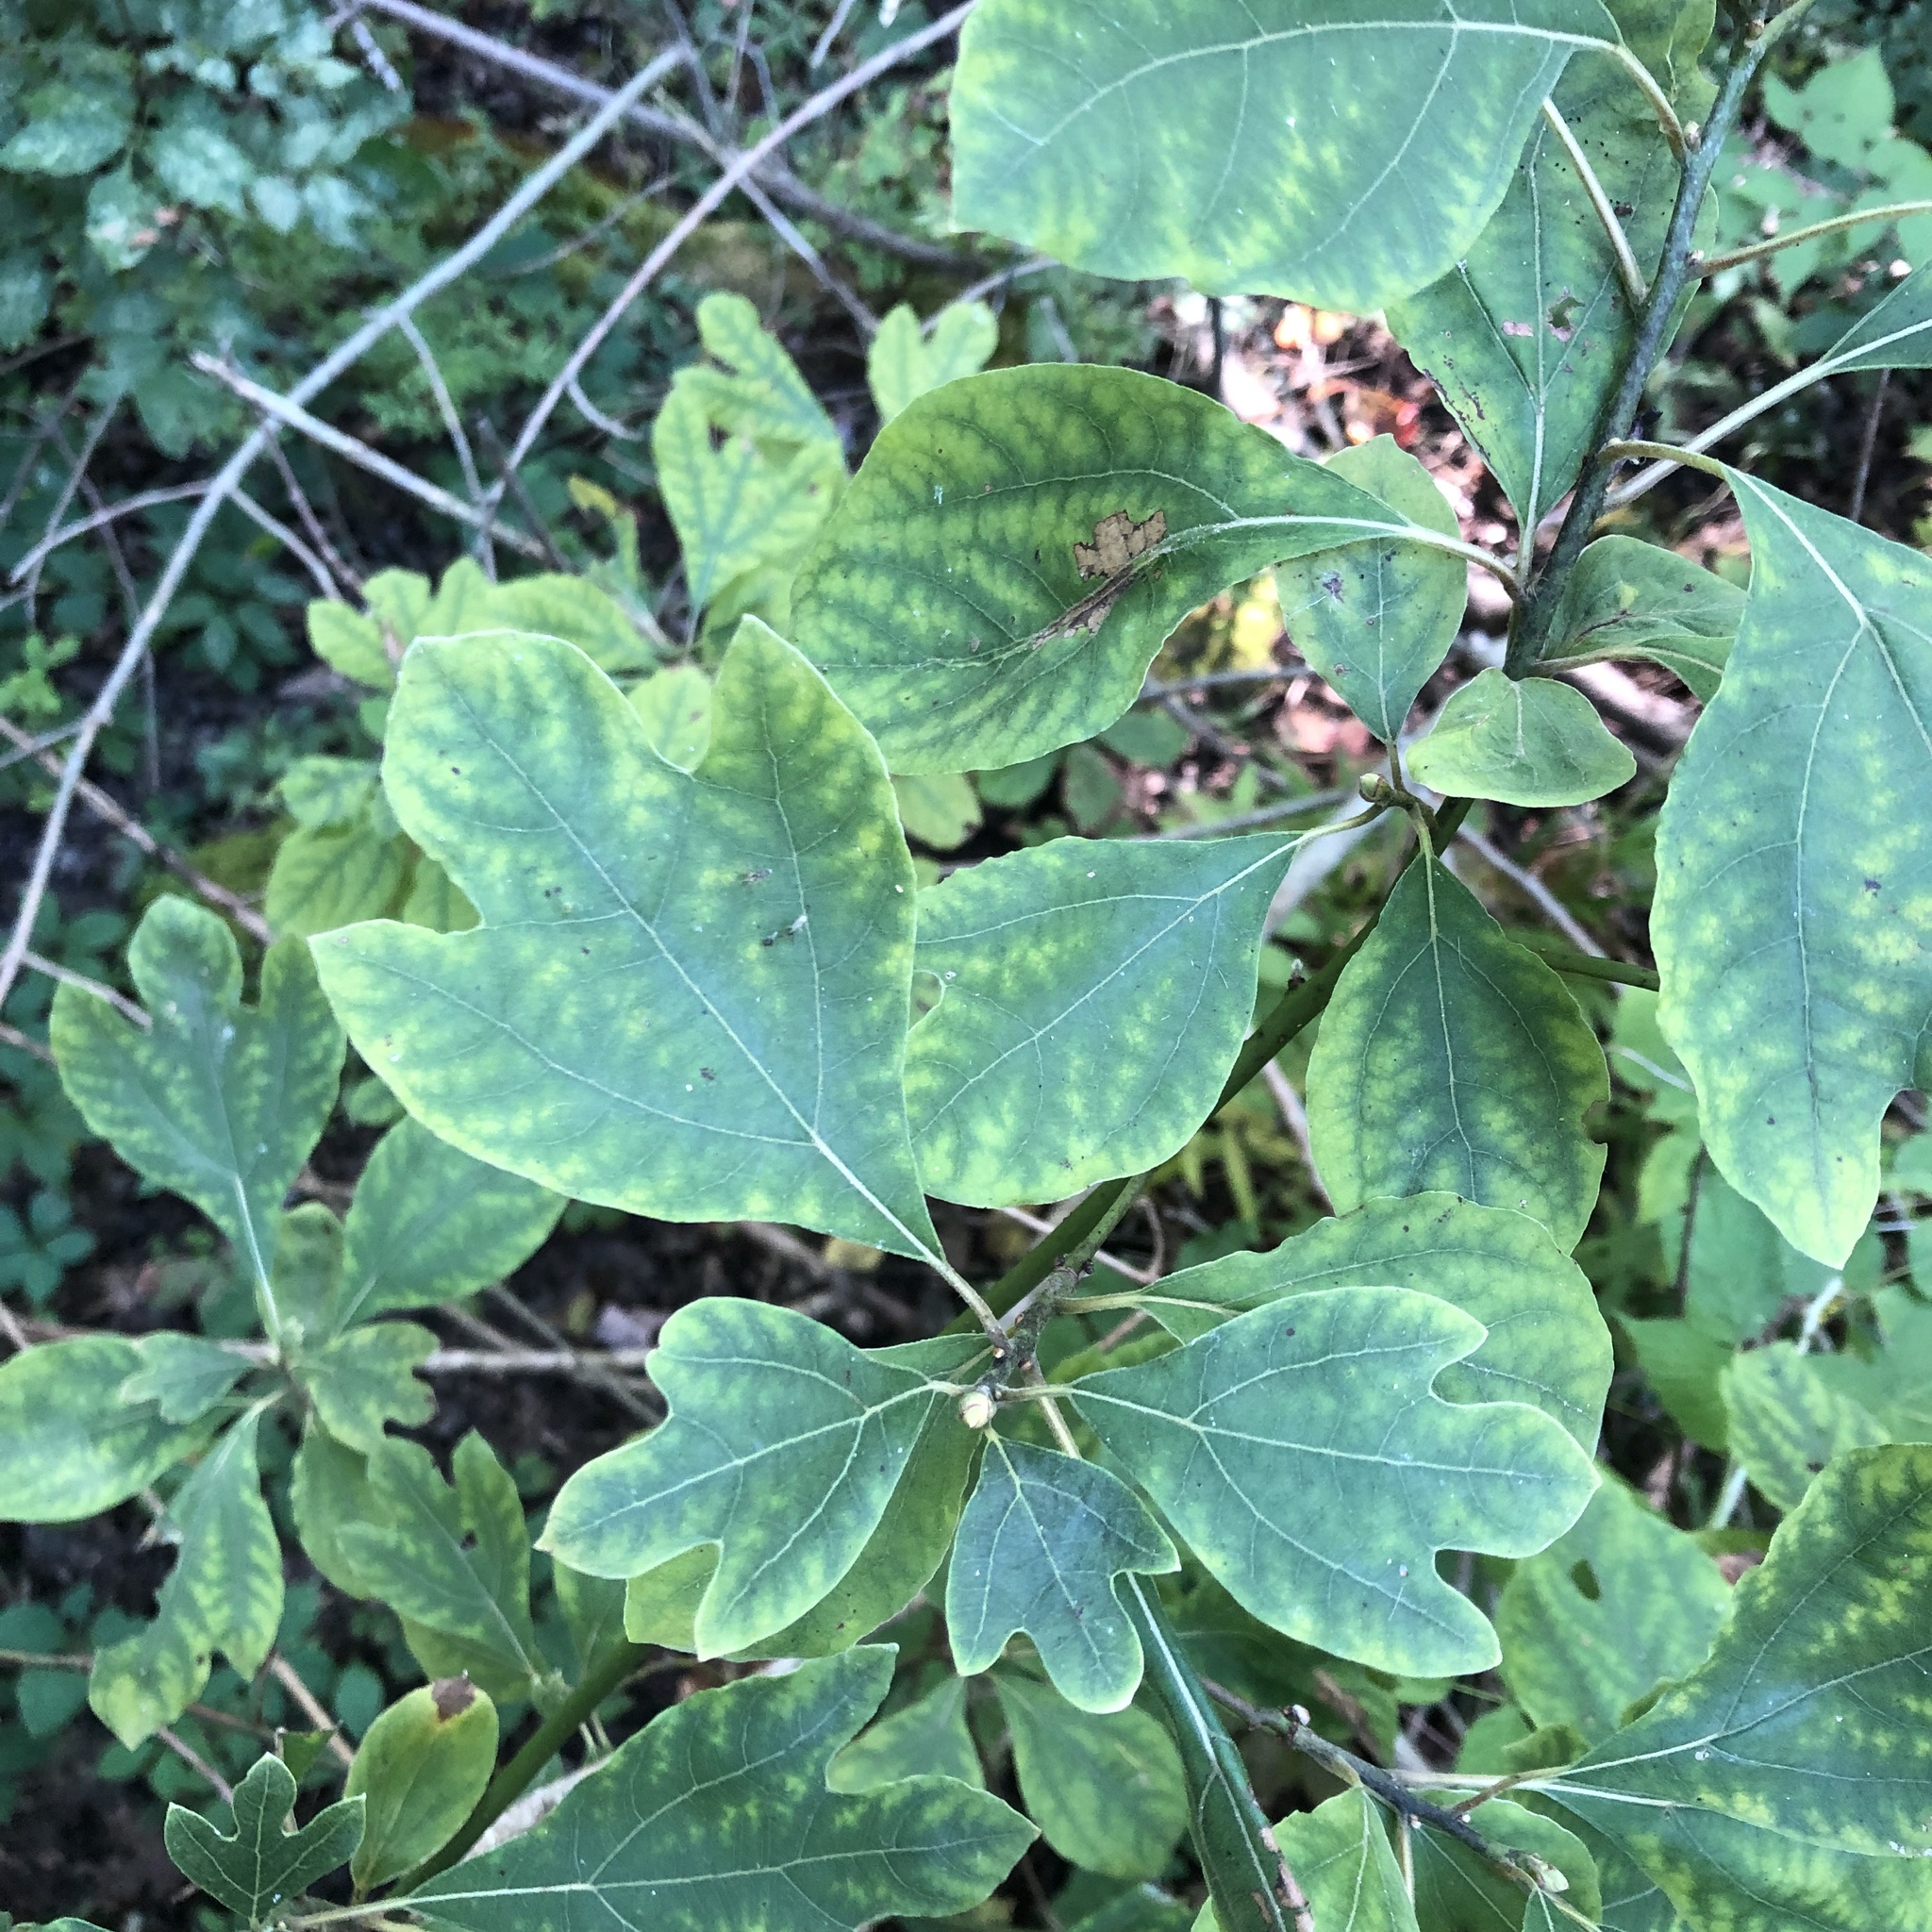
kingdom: Plantae
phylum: Tracheophyta
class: Magnoliopsida
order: Laurales
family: Lauraceae
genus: Sassafras
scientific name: Sassafras albidum
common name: Sassafras
